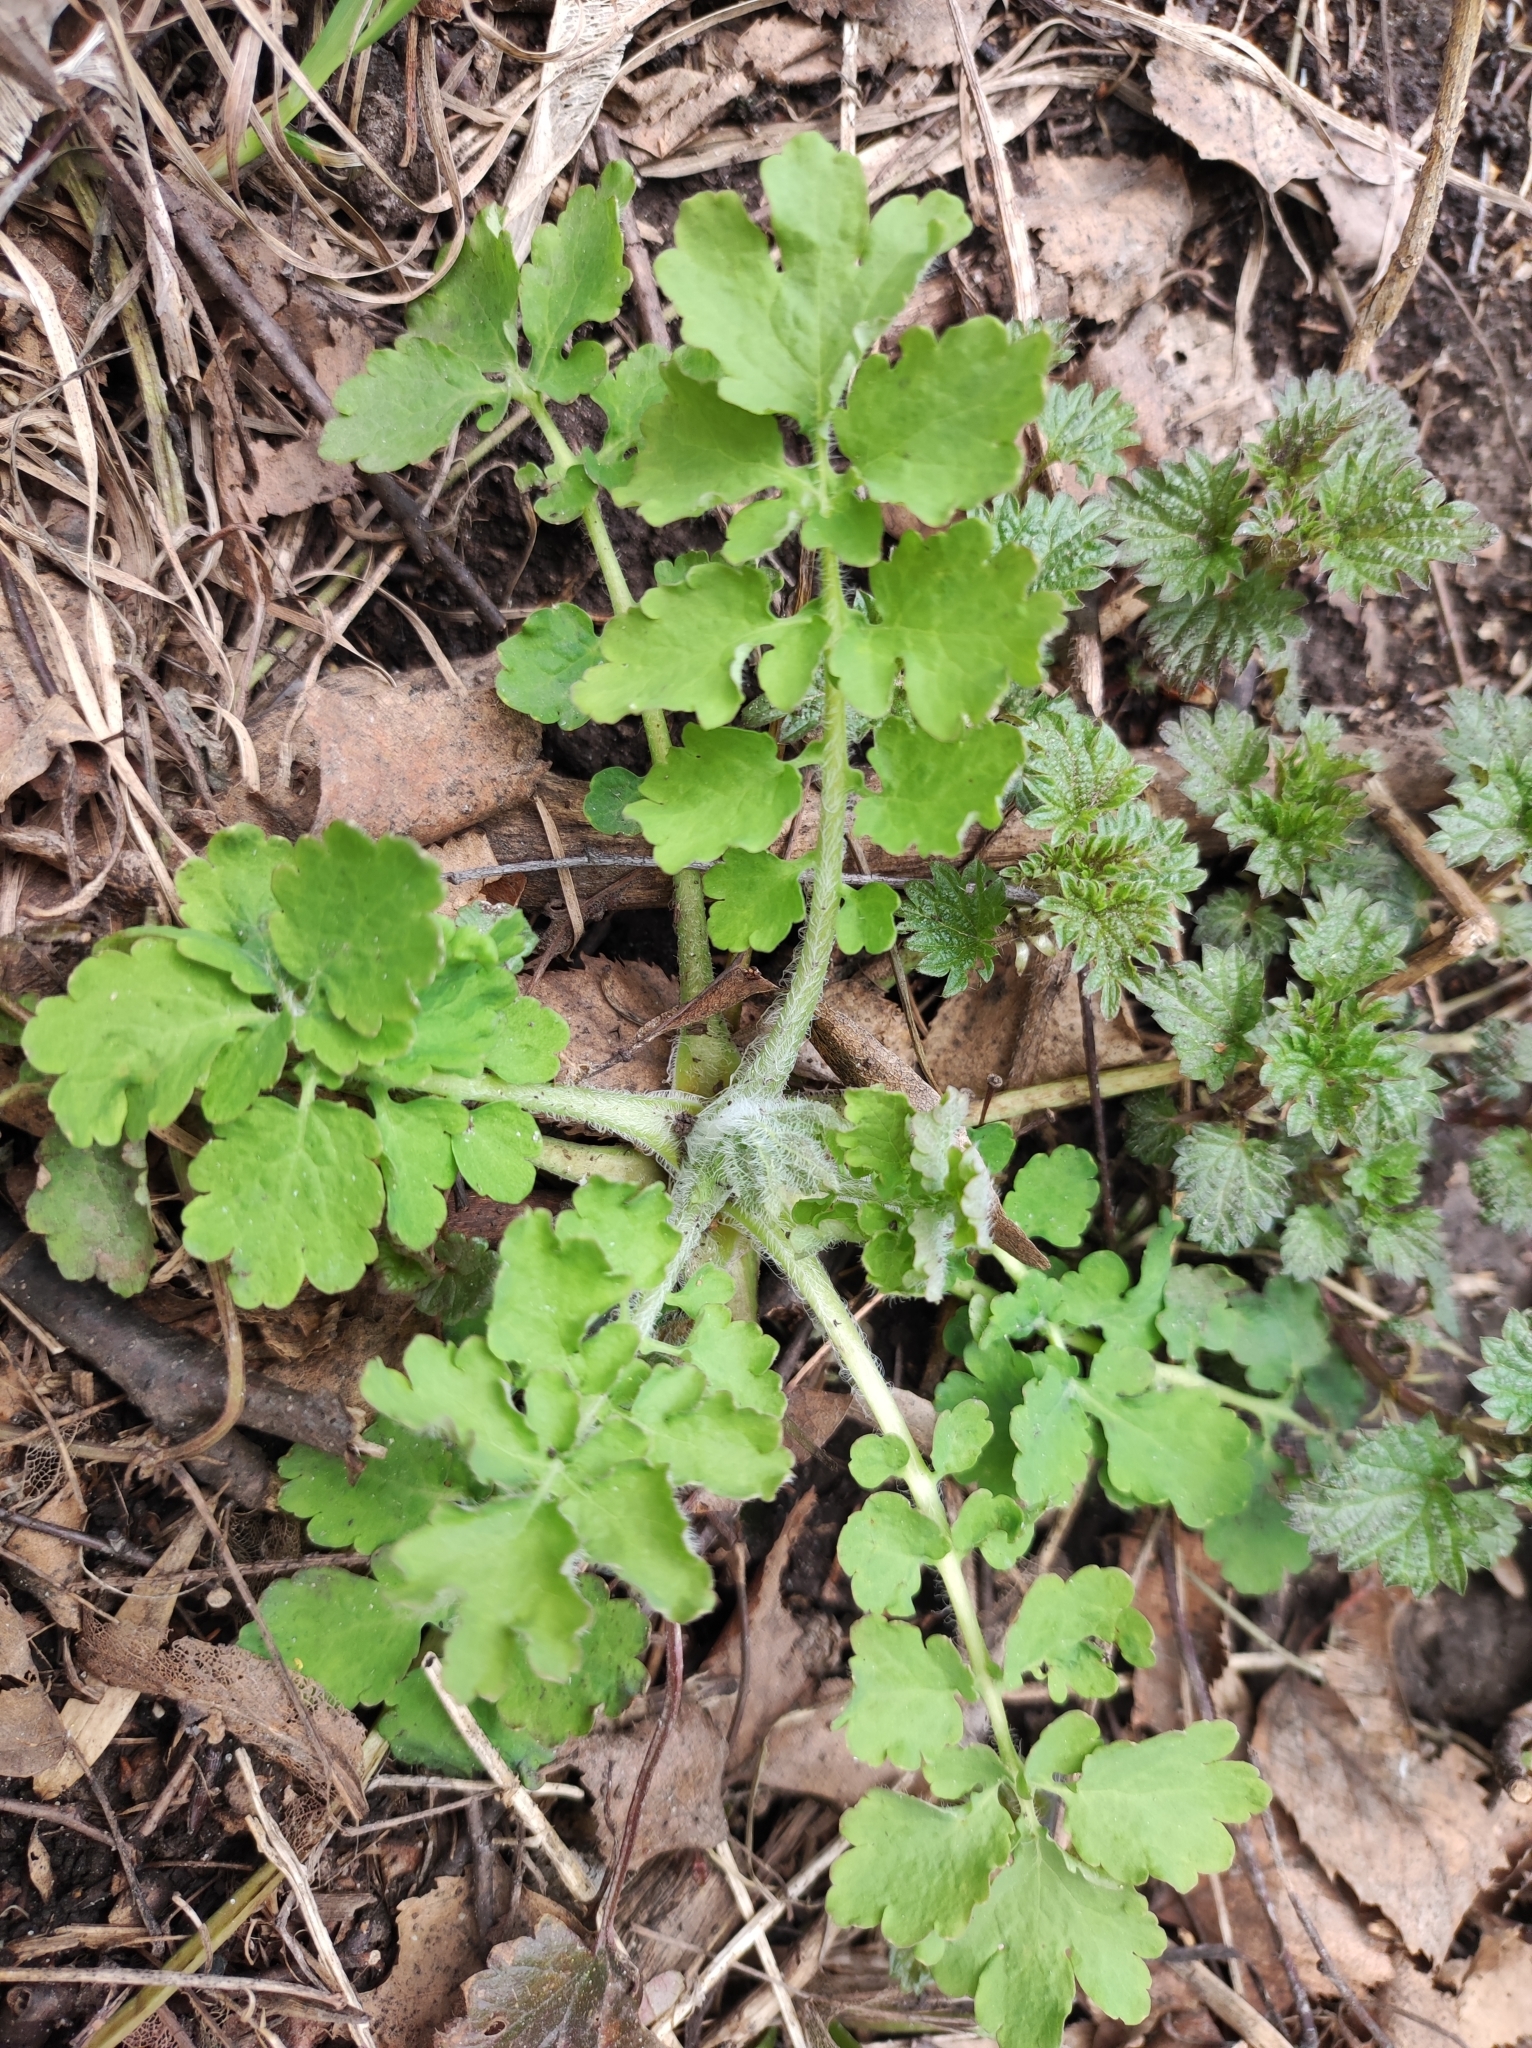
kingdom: Plantae
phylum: Tracheophyta
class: Magnoliopsida
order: Ranunculales
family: Papaveraceae
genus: Chelidonium
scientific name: Chelidonium majus
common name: Greater celandine
